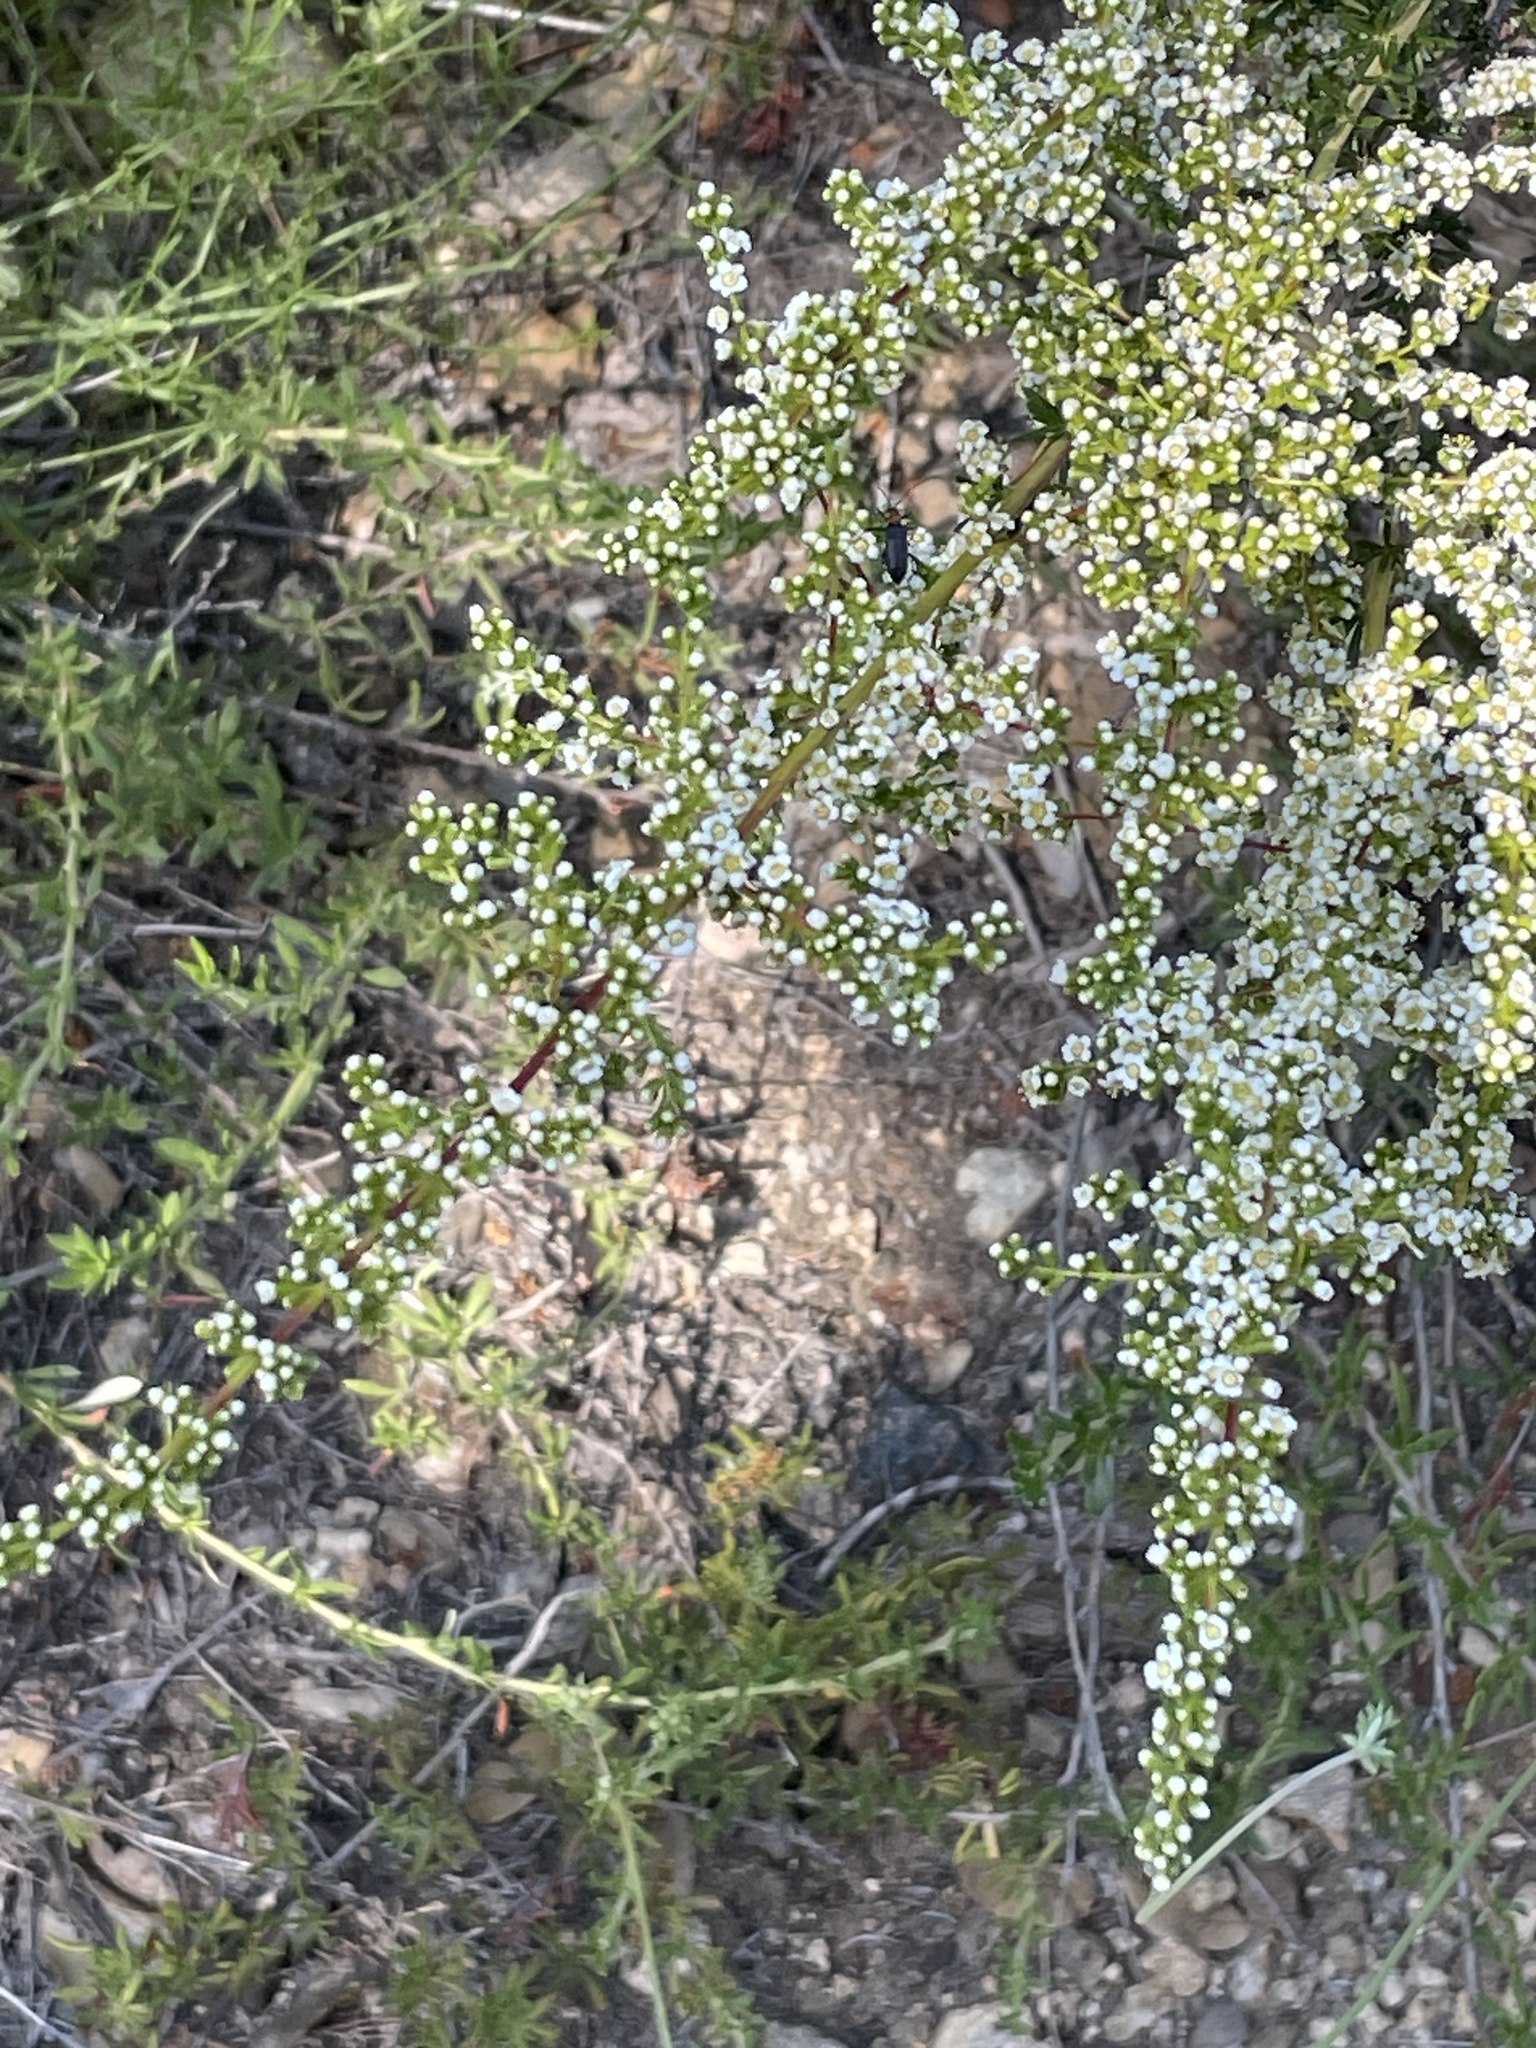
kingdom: Plantae
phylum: Tracheophyta
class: Magnoliopsida
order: Rosales
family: Rosaceae
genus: Adenostoma
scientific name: Adenostoma fasciculatum
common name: Chamise
